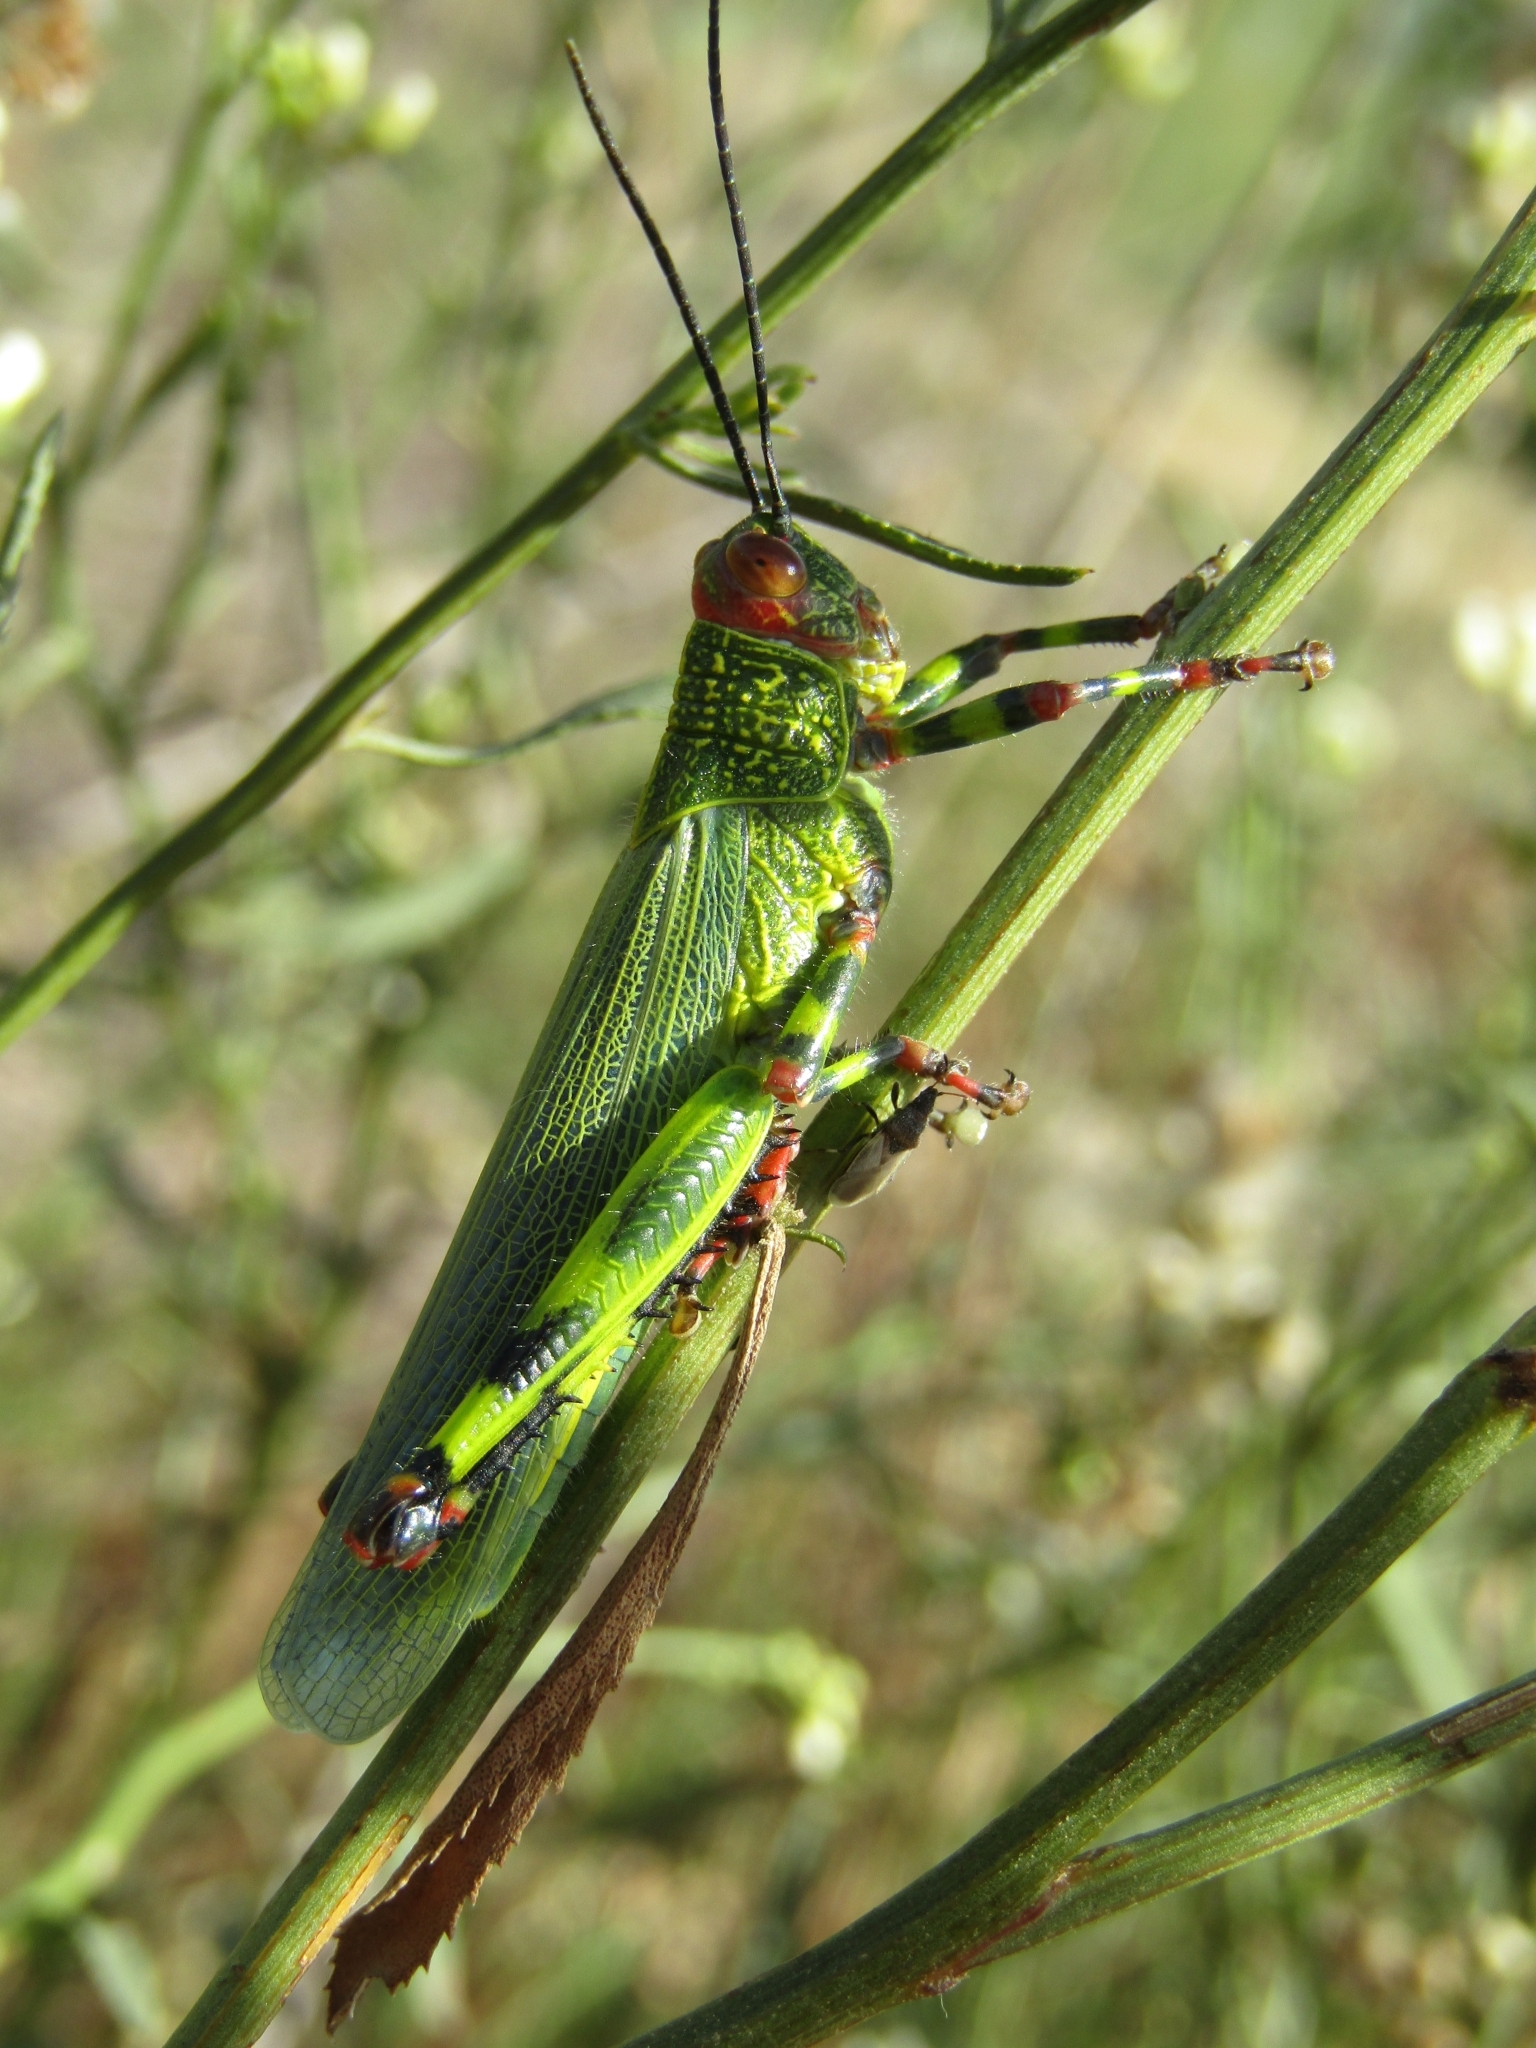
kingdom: Animalia
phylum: Arthropoda
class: Insecta
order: Orthoptera
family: Romaleidae
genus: Zoniopoda
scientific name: Zoniopoda tarsata
